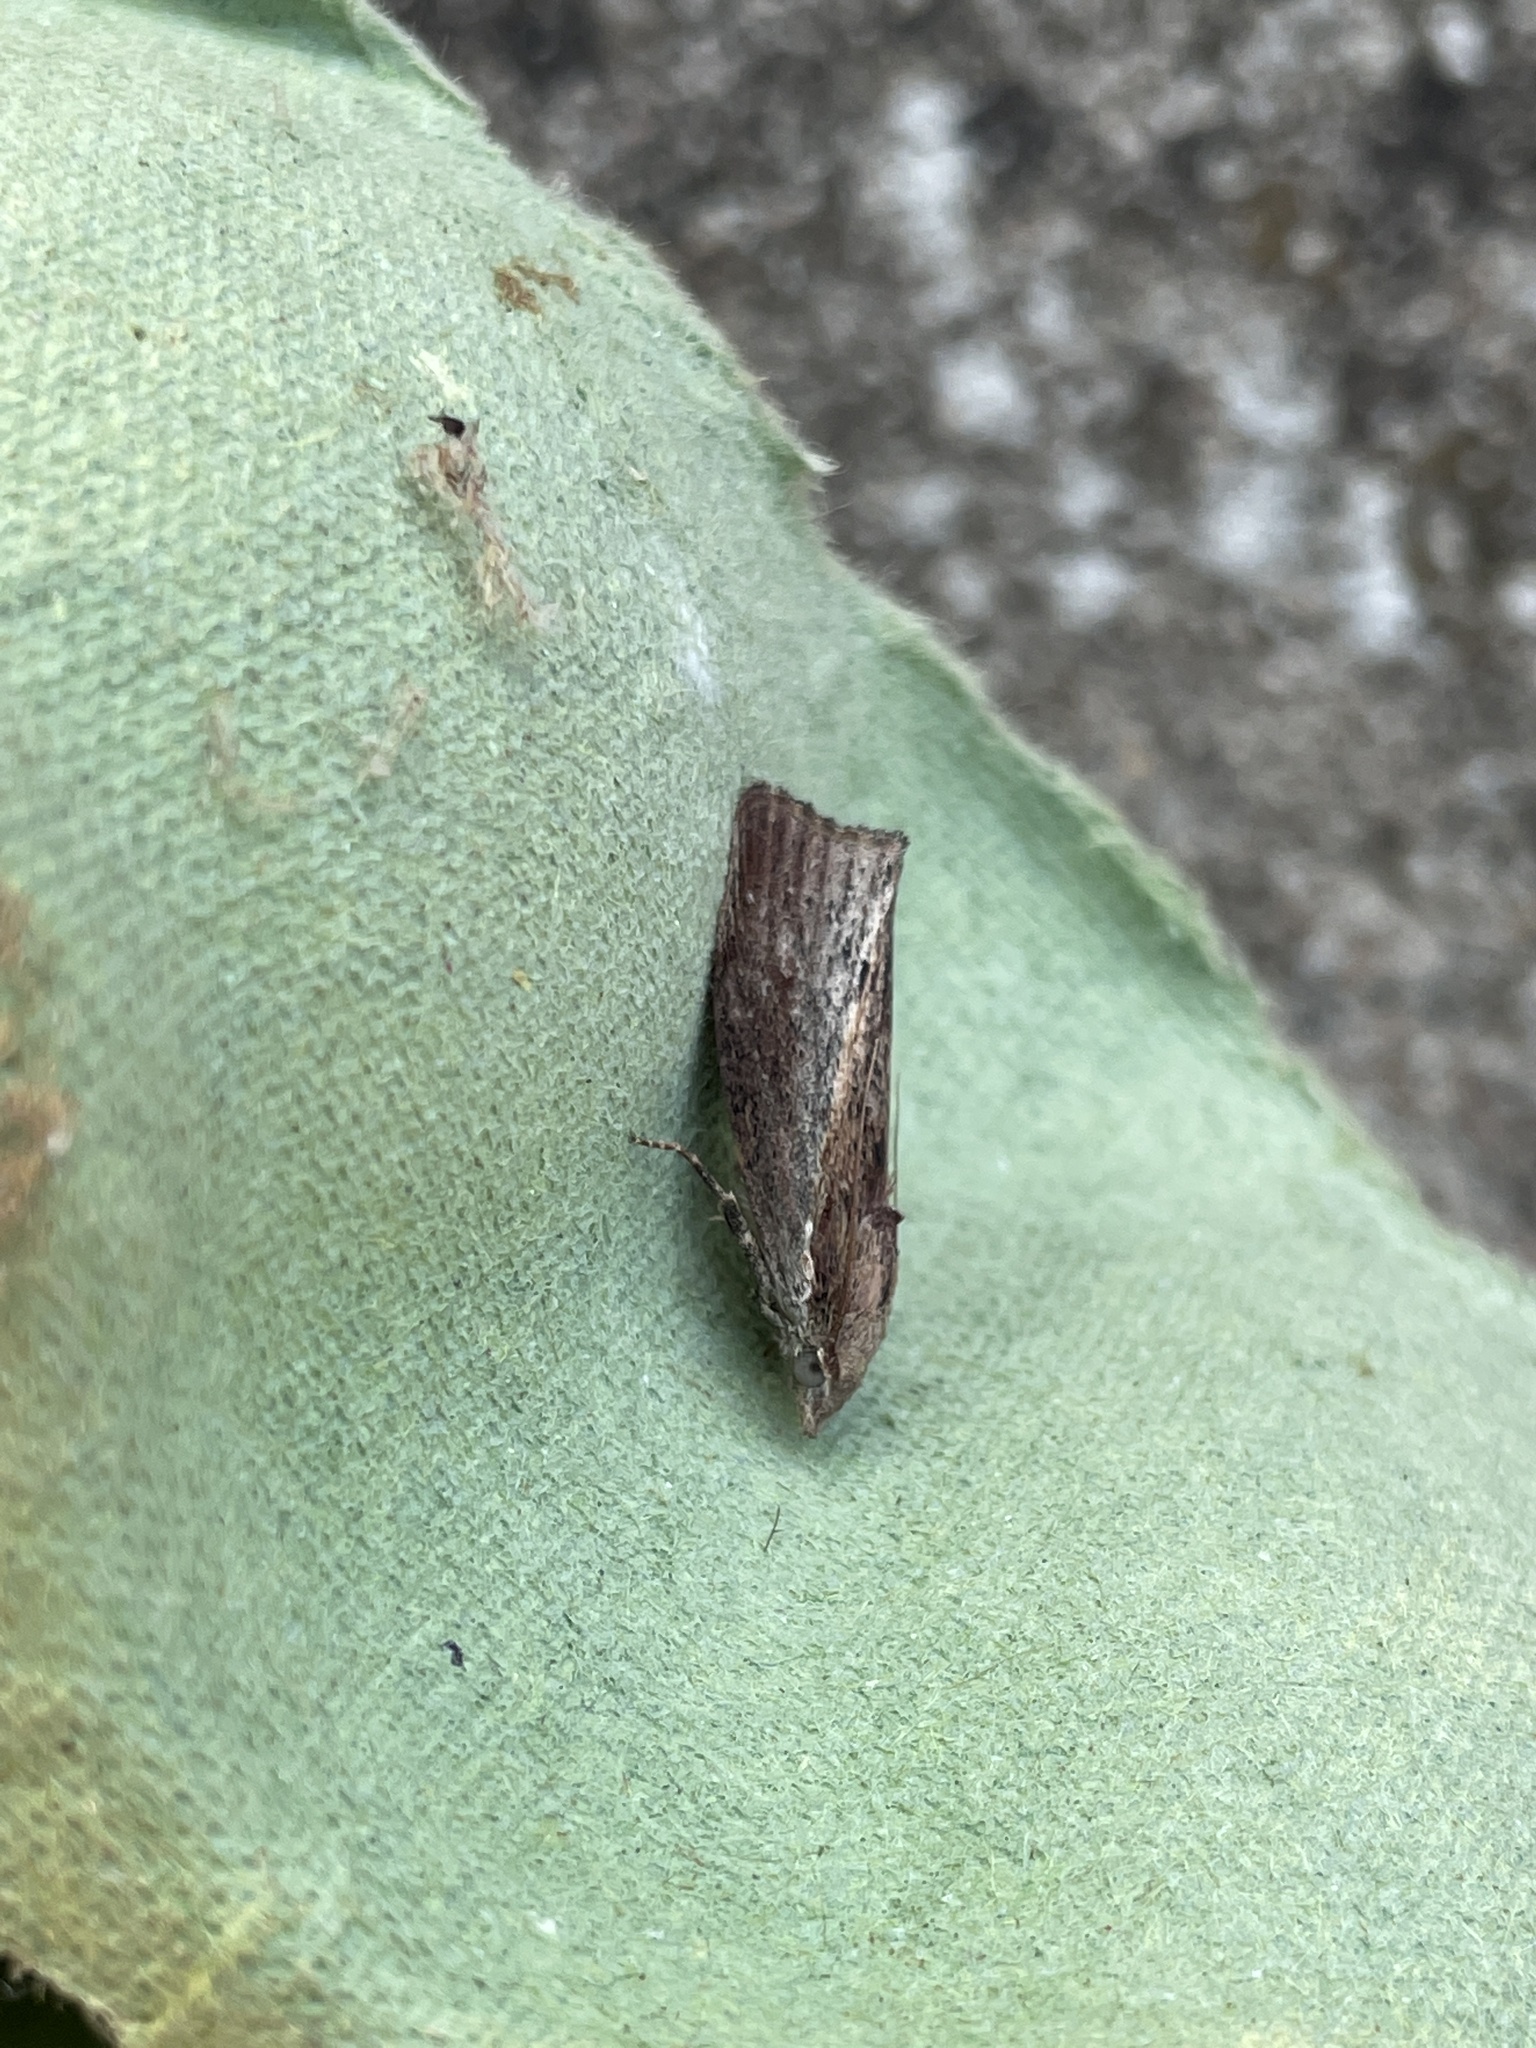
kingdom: Animalia
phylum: Arthropoda
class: Insecta
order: Lepidoptera
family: Pyralidae
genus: Galleria
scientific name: Galleria mellonella
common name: Greater wax moth
